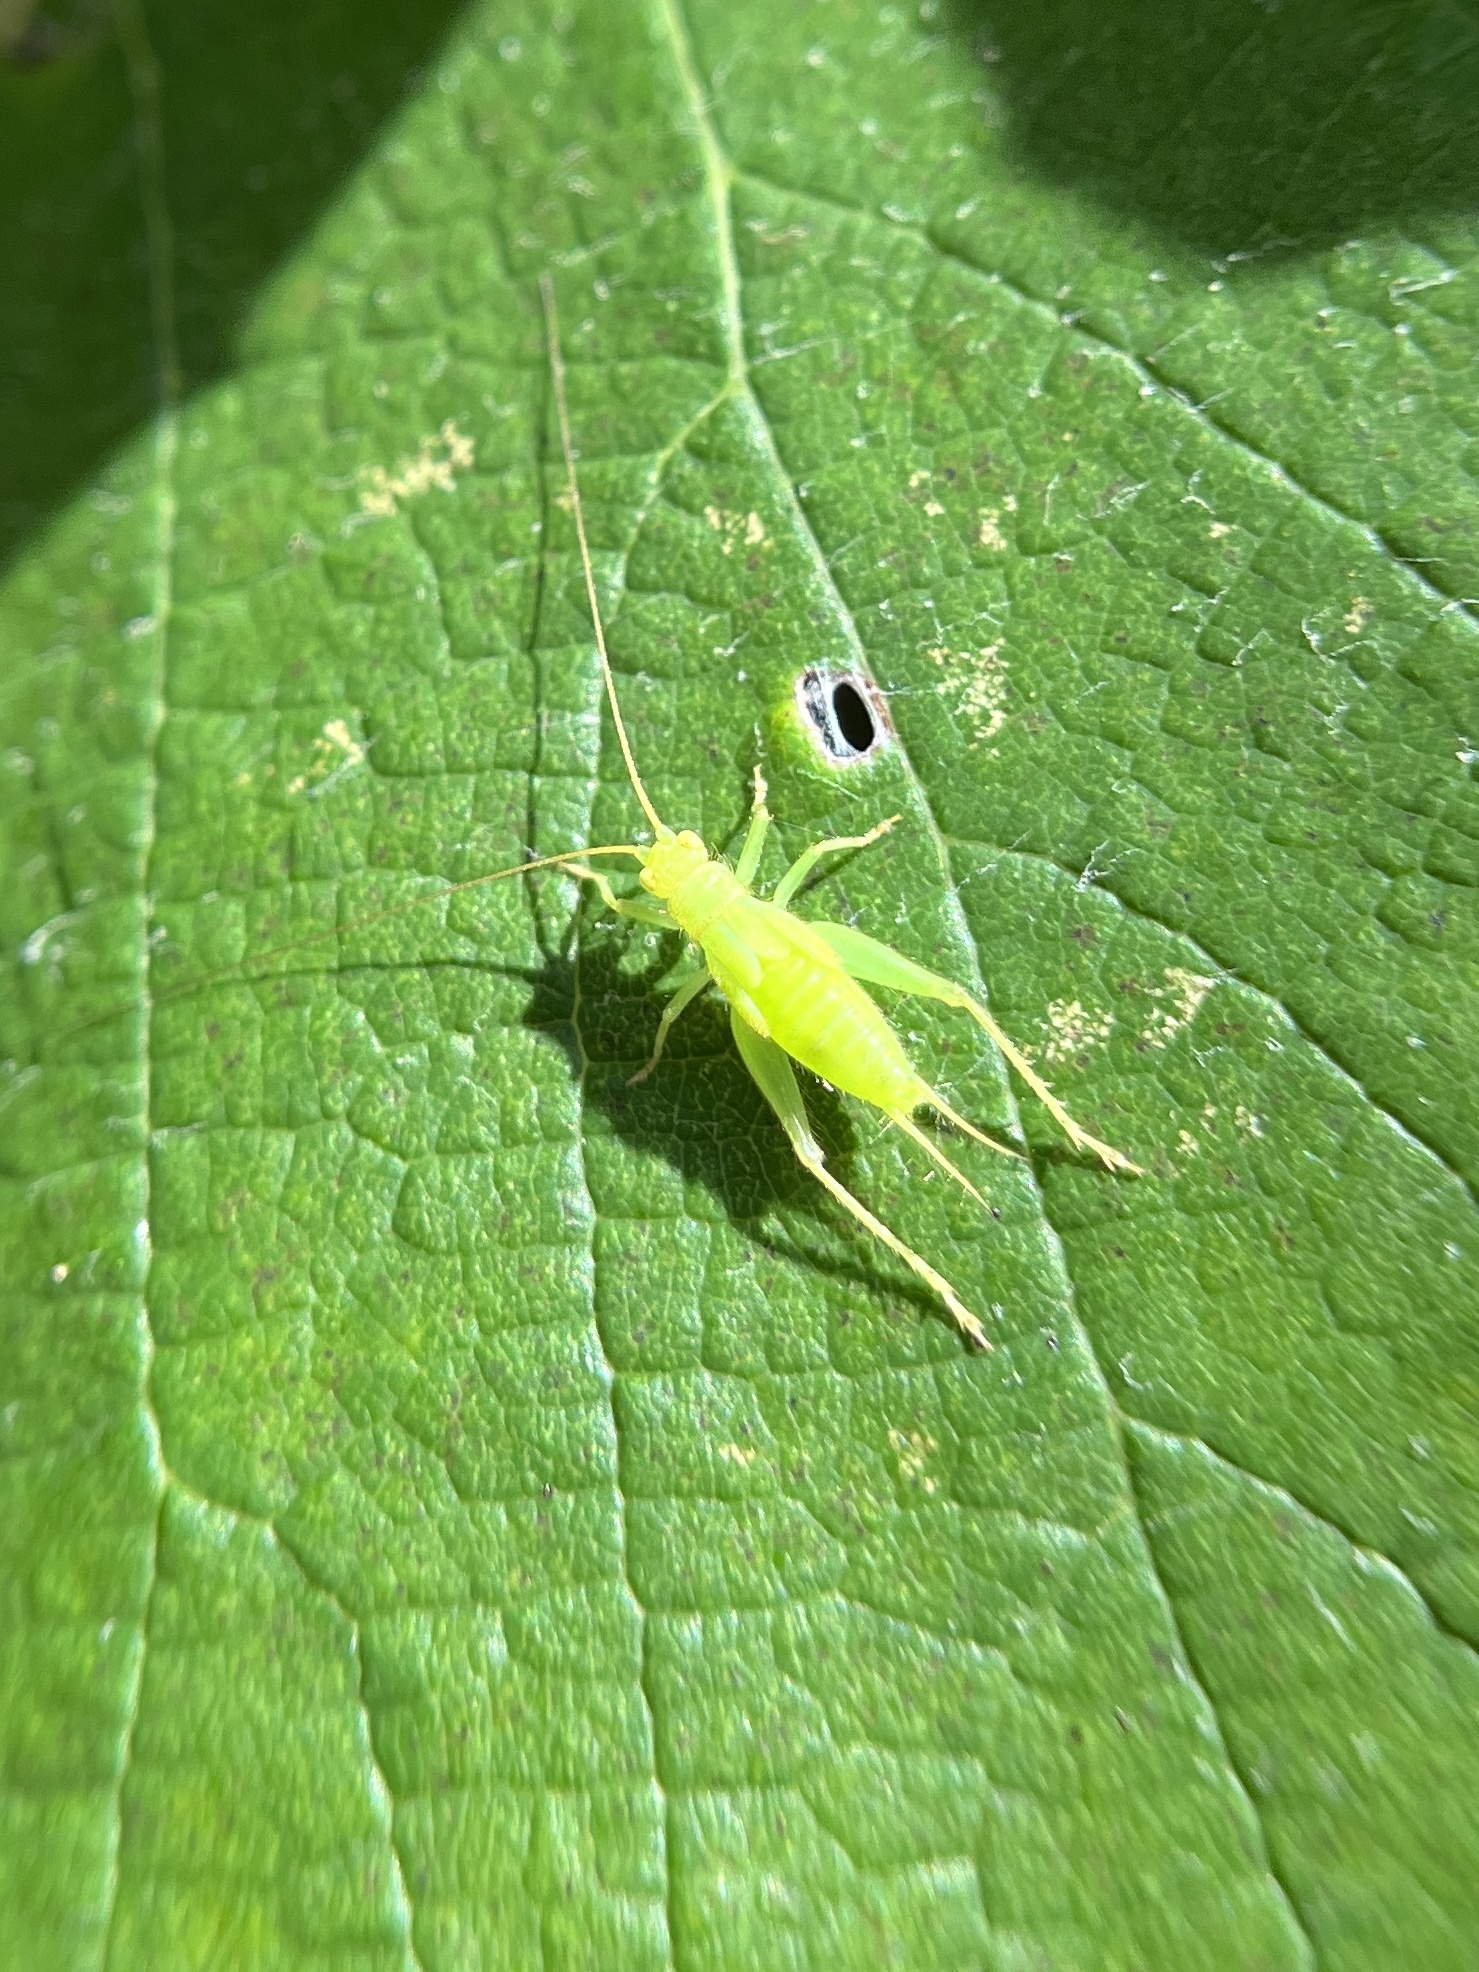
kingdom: Animalia
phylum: Arthropoda
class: Insecta
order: Orthoptera
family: Trigonidiidae
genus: Cyrtoxipha
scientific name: Cyrtoxipha columbiana
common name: Columbian trig
